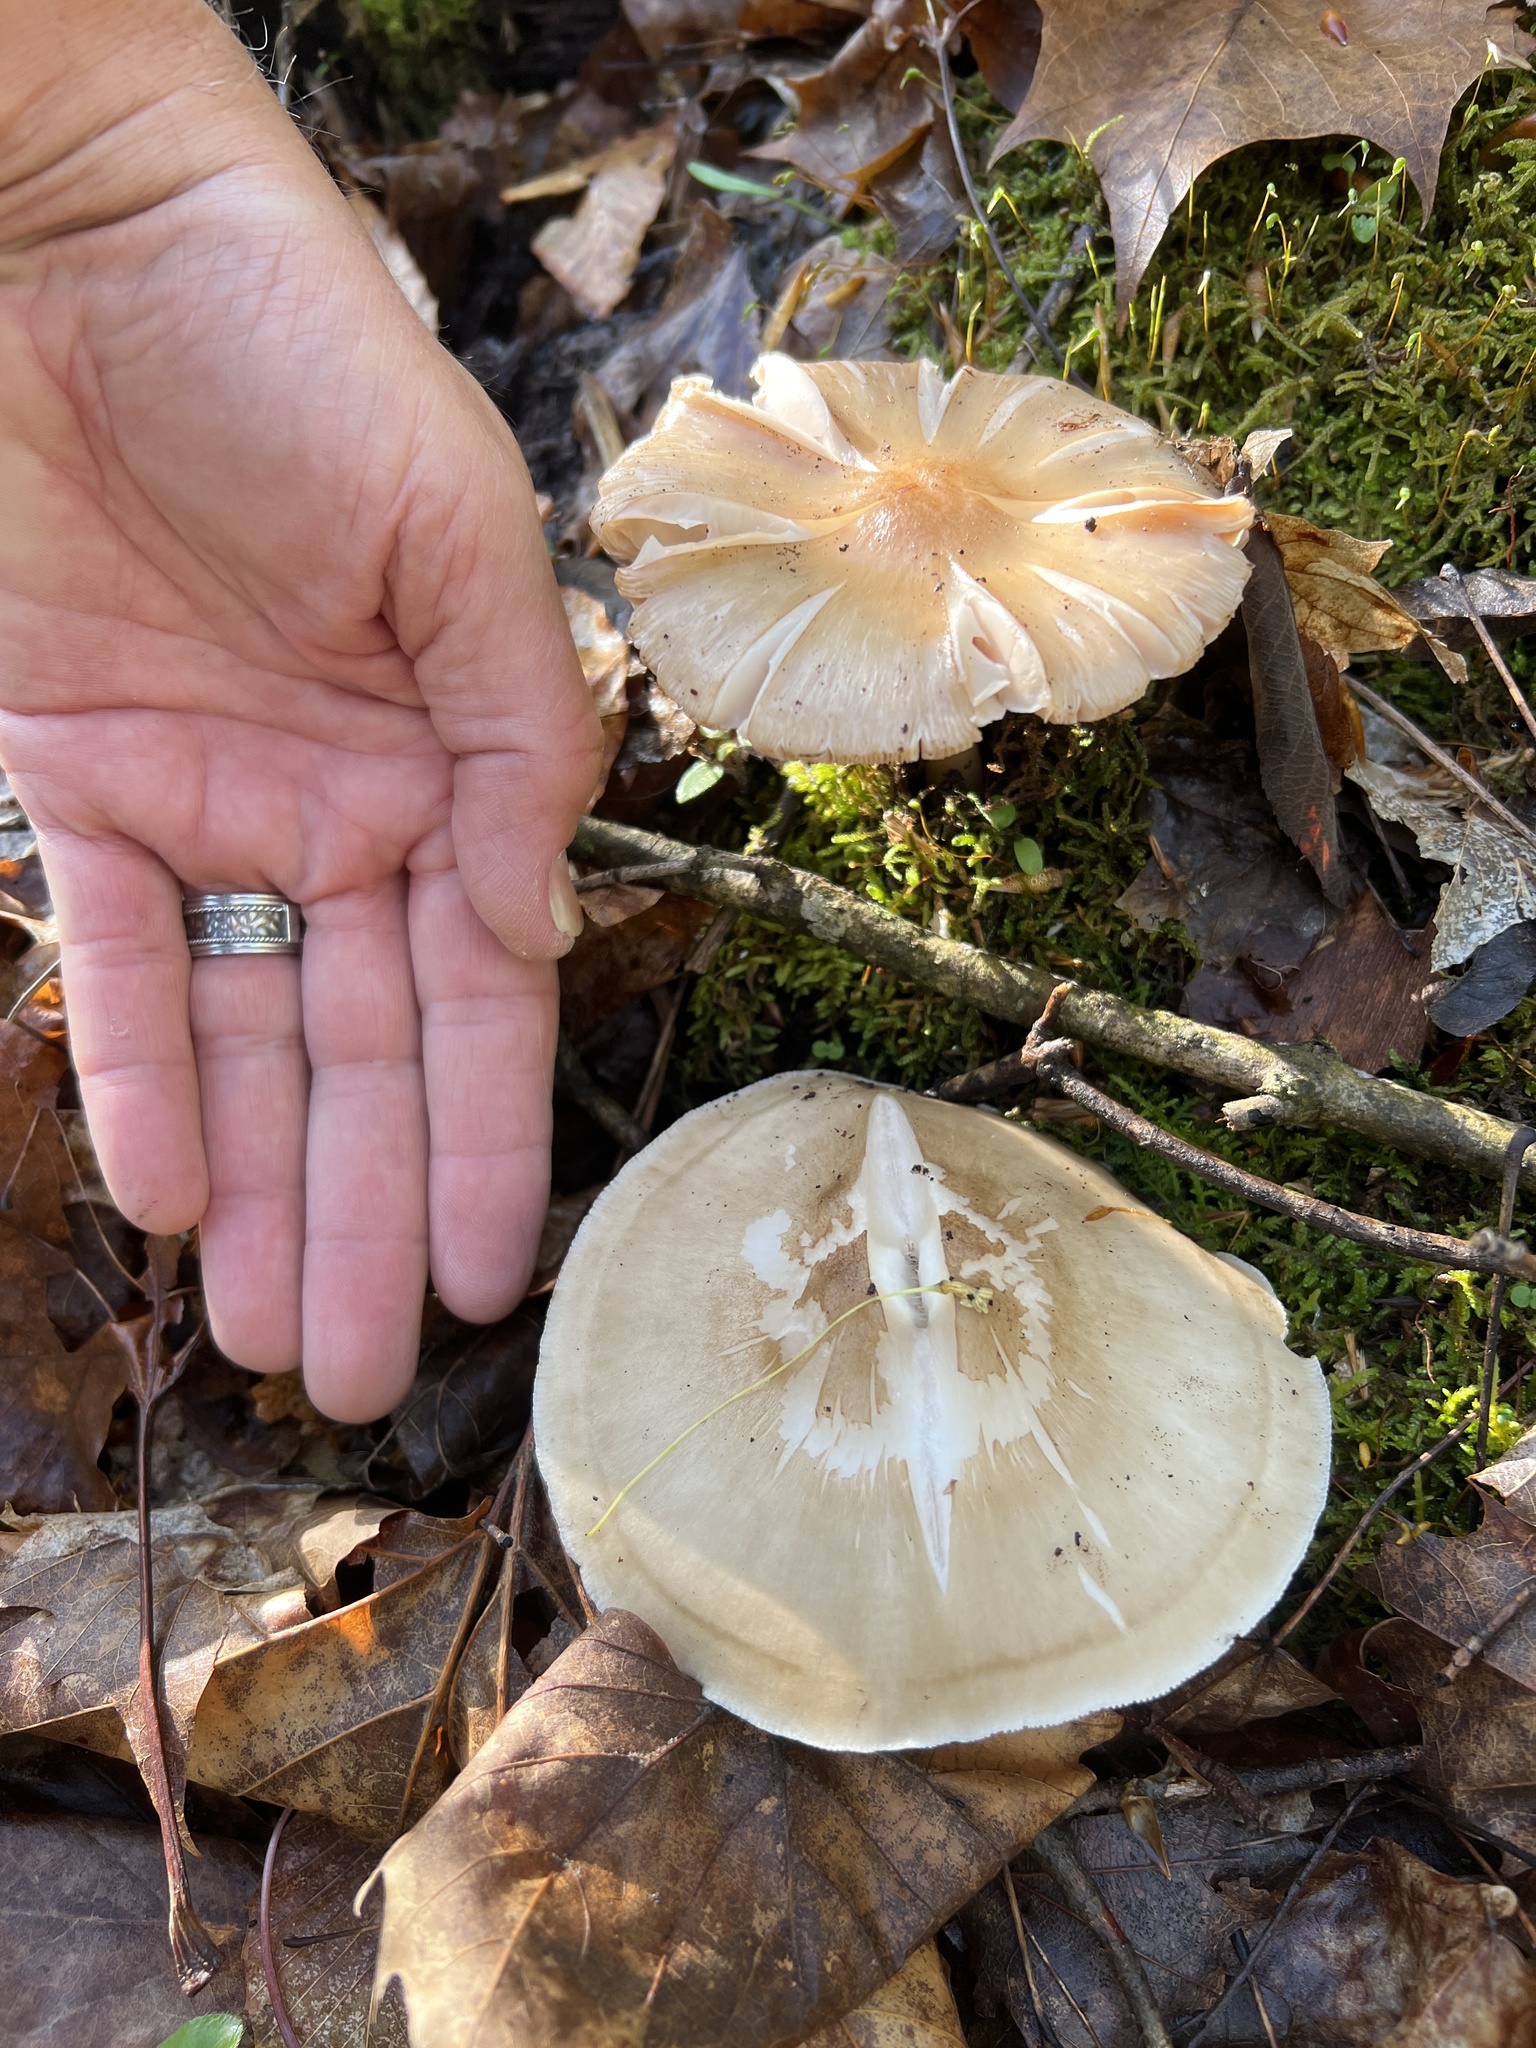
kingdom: Fungi
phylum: Basidiomycota
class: Agaricomycetes
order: Agaricales
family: Pluteaceae
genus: Pluteus
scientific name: Pluteus cervinus
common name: Deer shield
